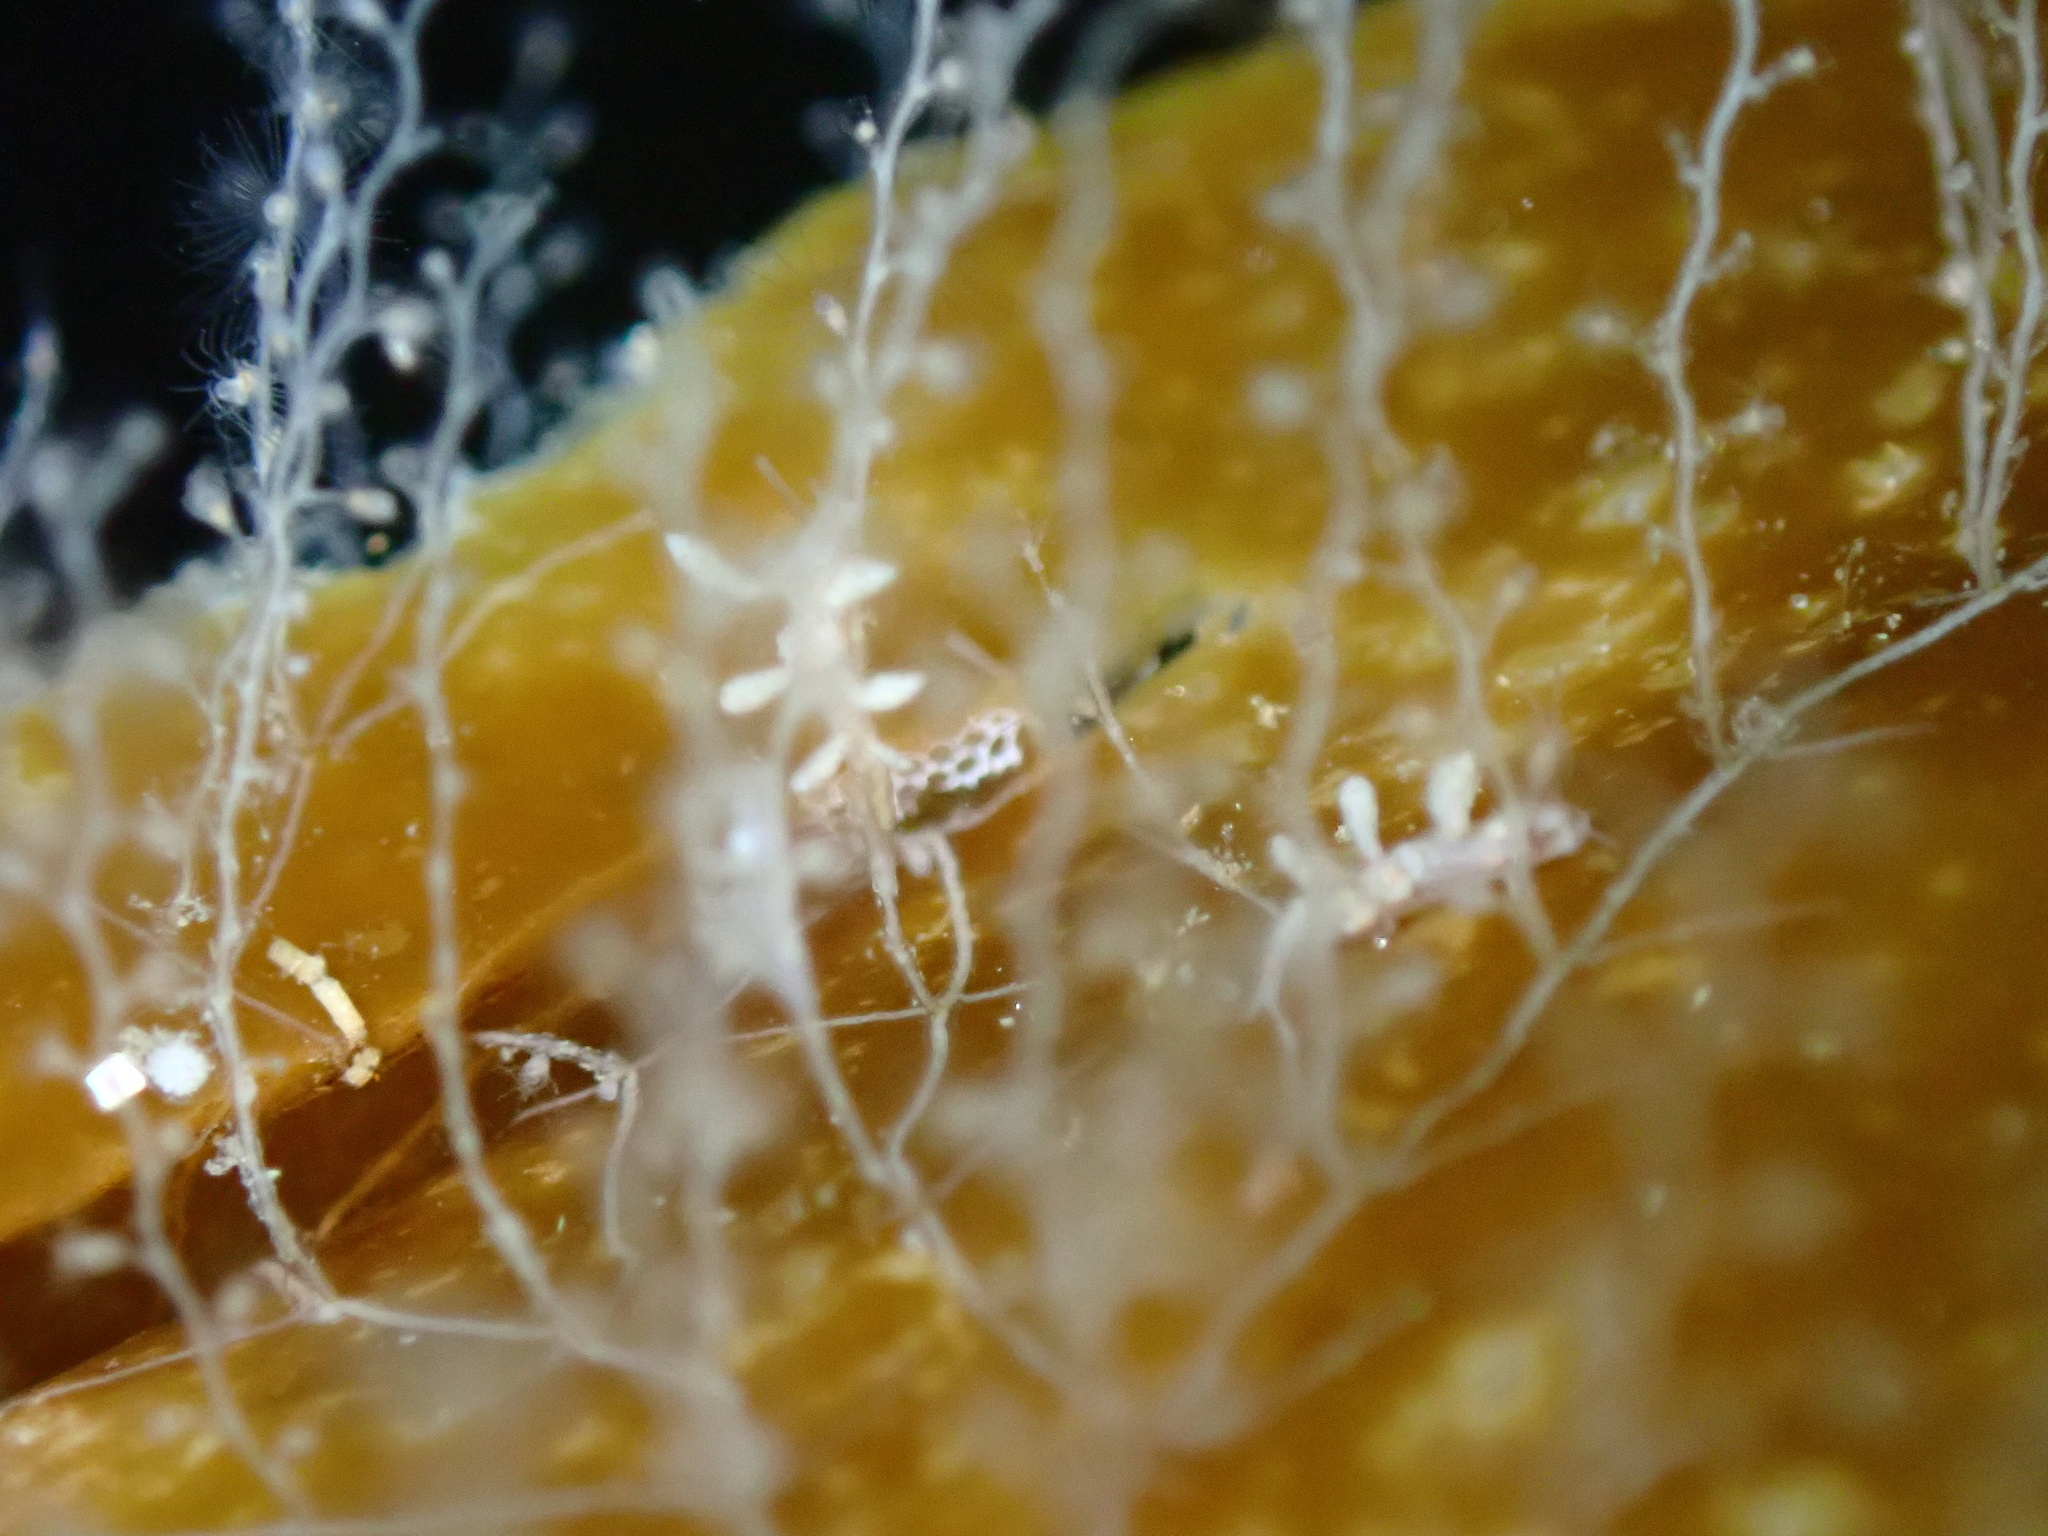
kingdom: Animalia
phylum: Mollusca
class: Gastropoda
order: Nudibranchia
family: Tergipedidae
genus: Tergipes
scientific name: Tergipes tergipes
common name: Johnston's balloon eolis
